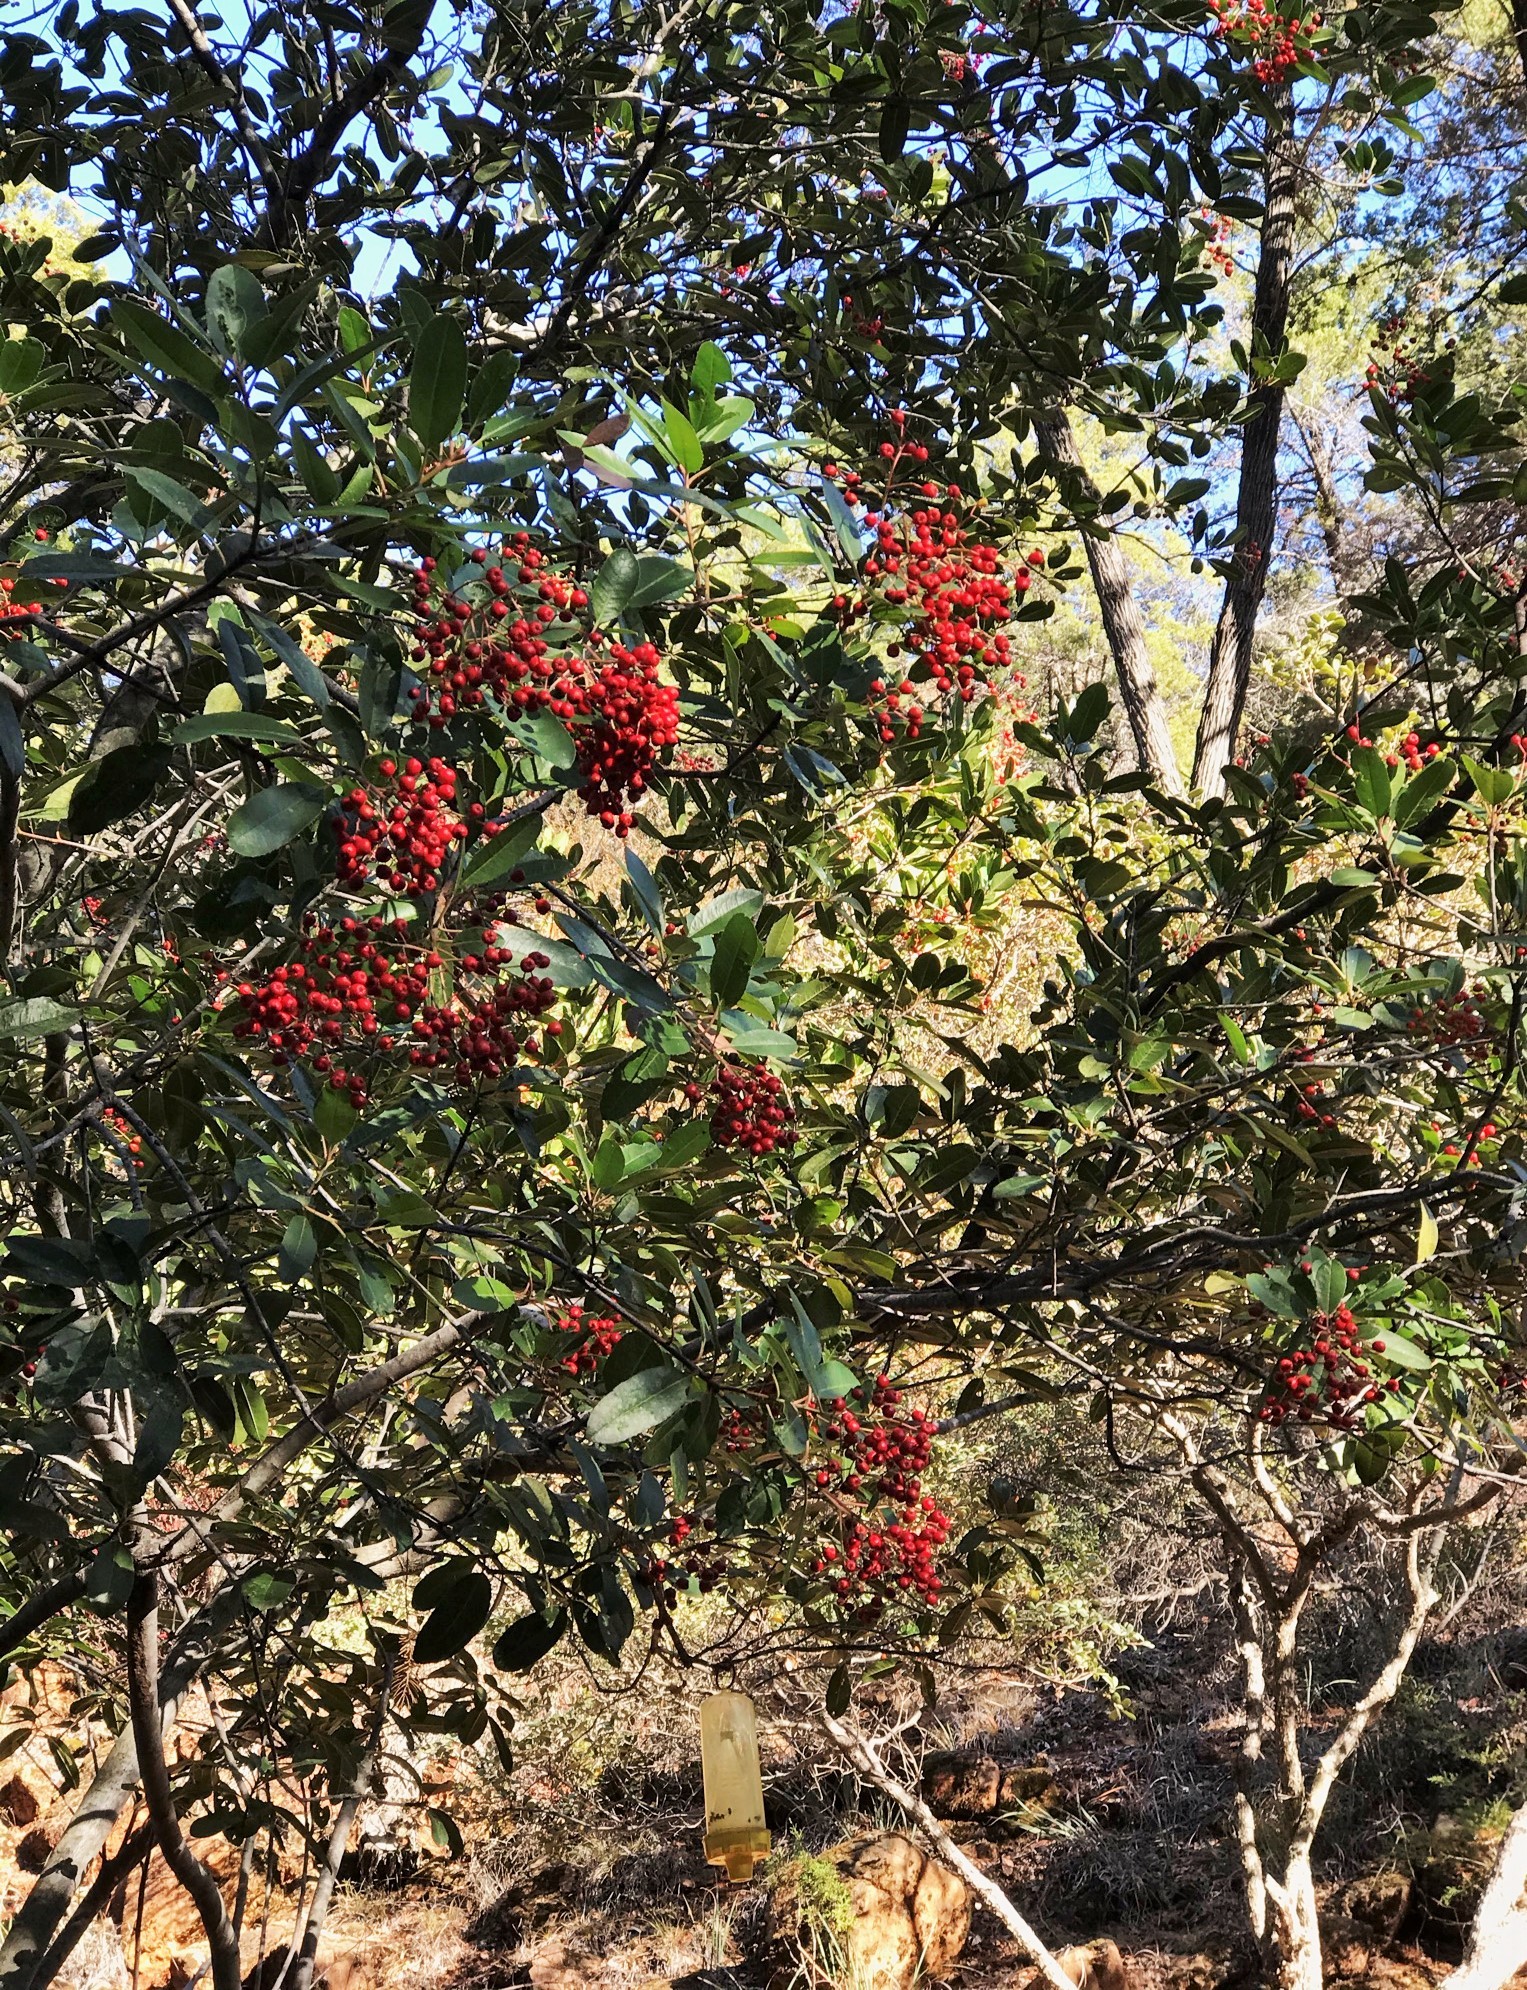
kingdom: Plantae
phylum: Tracheophyta
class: Magnoliopsida
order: Rosales
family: Rosaceae
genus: Heteromeles
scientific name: Heteromeles arbutifolia
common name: California-holly
